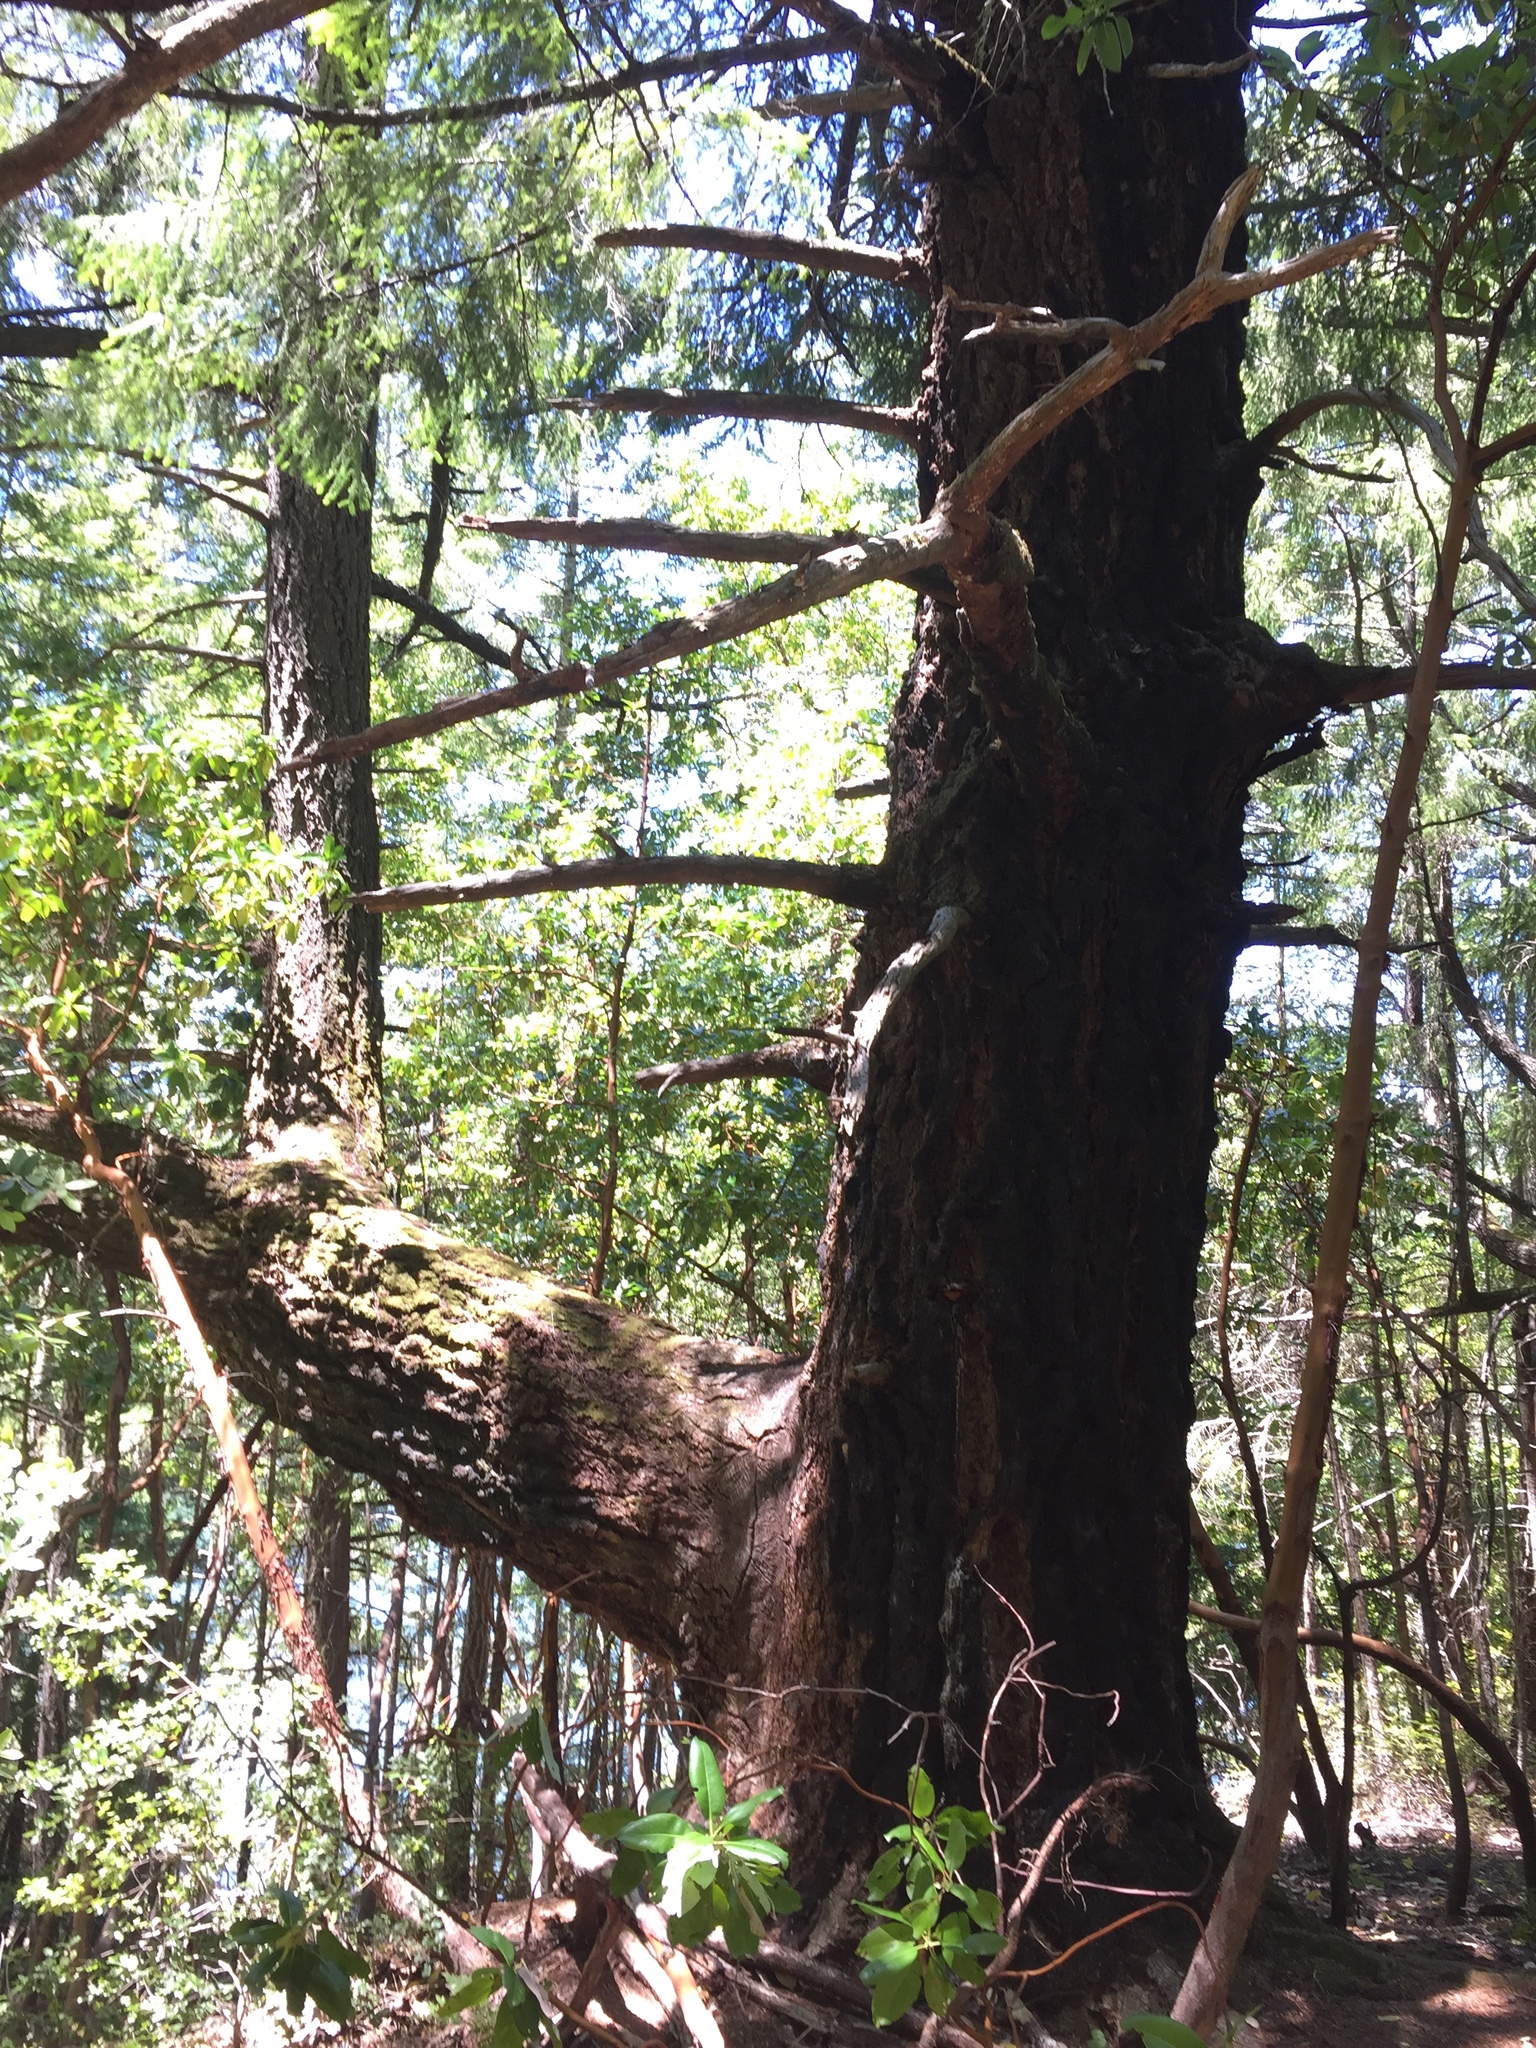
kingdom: Plantae
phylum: Tracheophyta
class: Pinopsida
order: Pinales
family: Pinaceae
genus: Pseudotsuga
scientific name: Pseudotsuga menziesii
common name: Douglas fir
